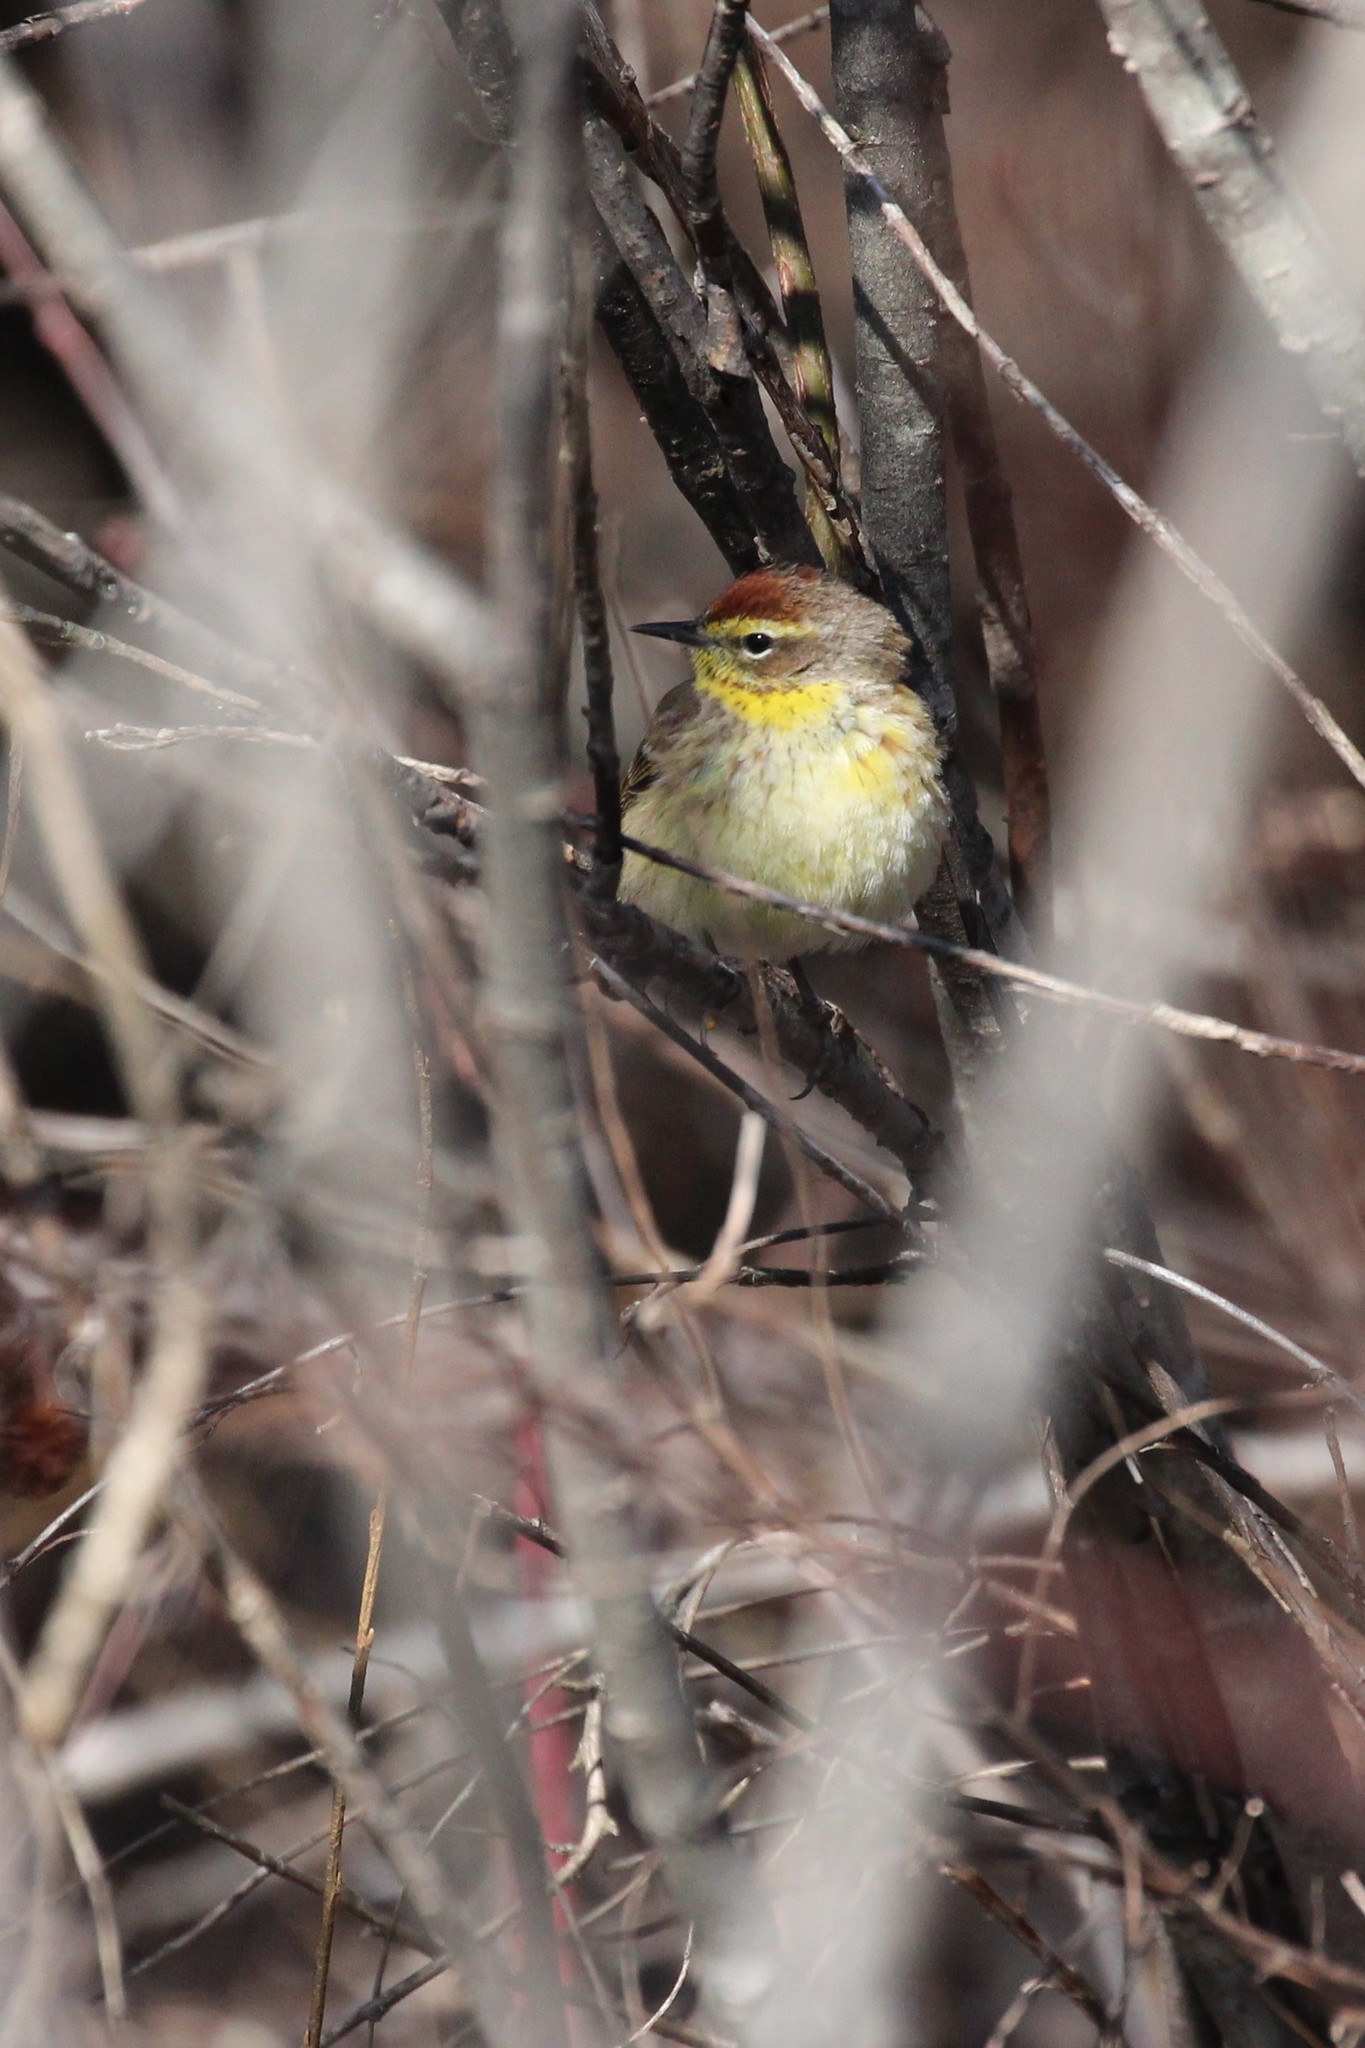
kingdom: Animalia
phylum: Chordata
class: Aves
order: Passeriformes
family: Parulidae
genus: Setophaga
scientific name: Setophaga palmarum
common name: Palm warbler
